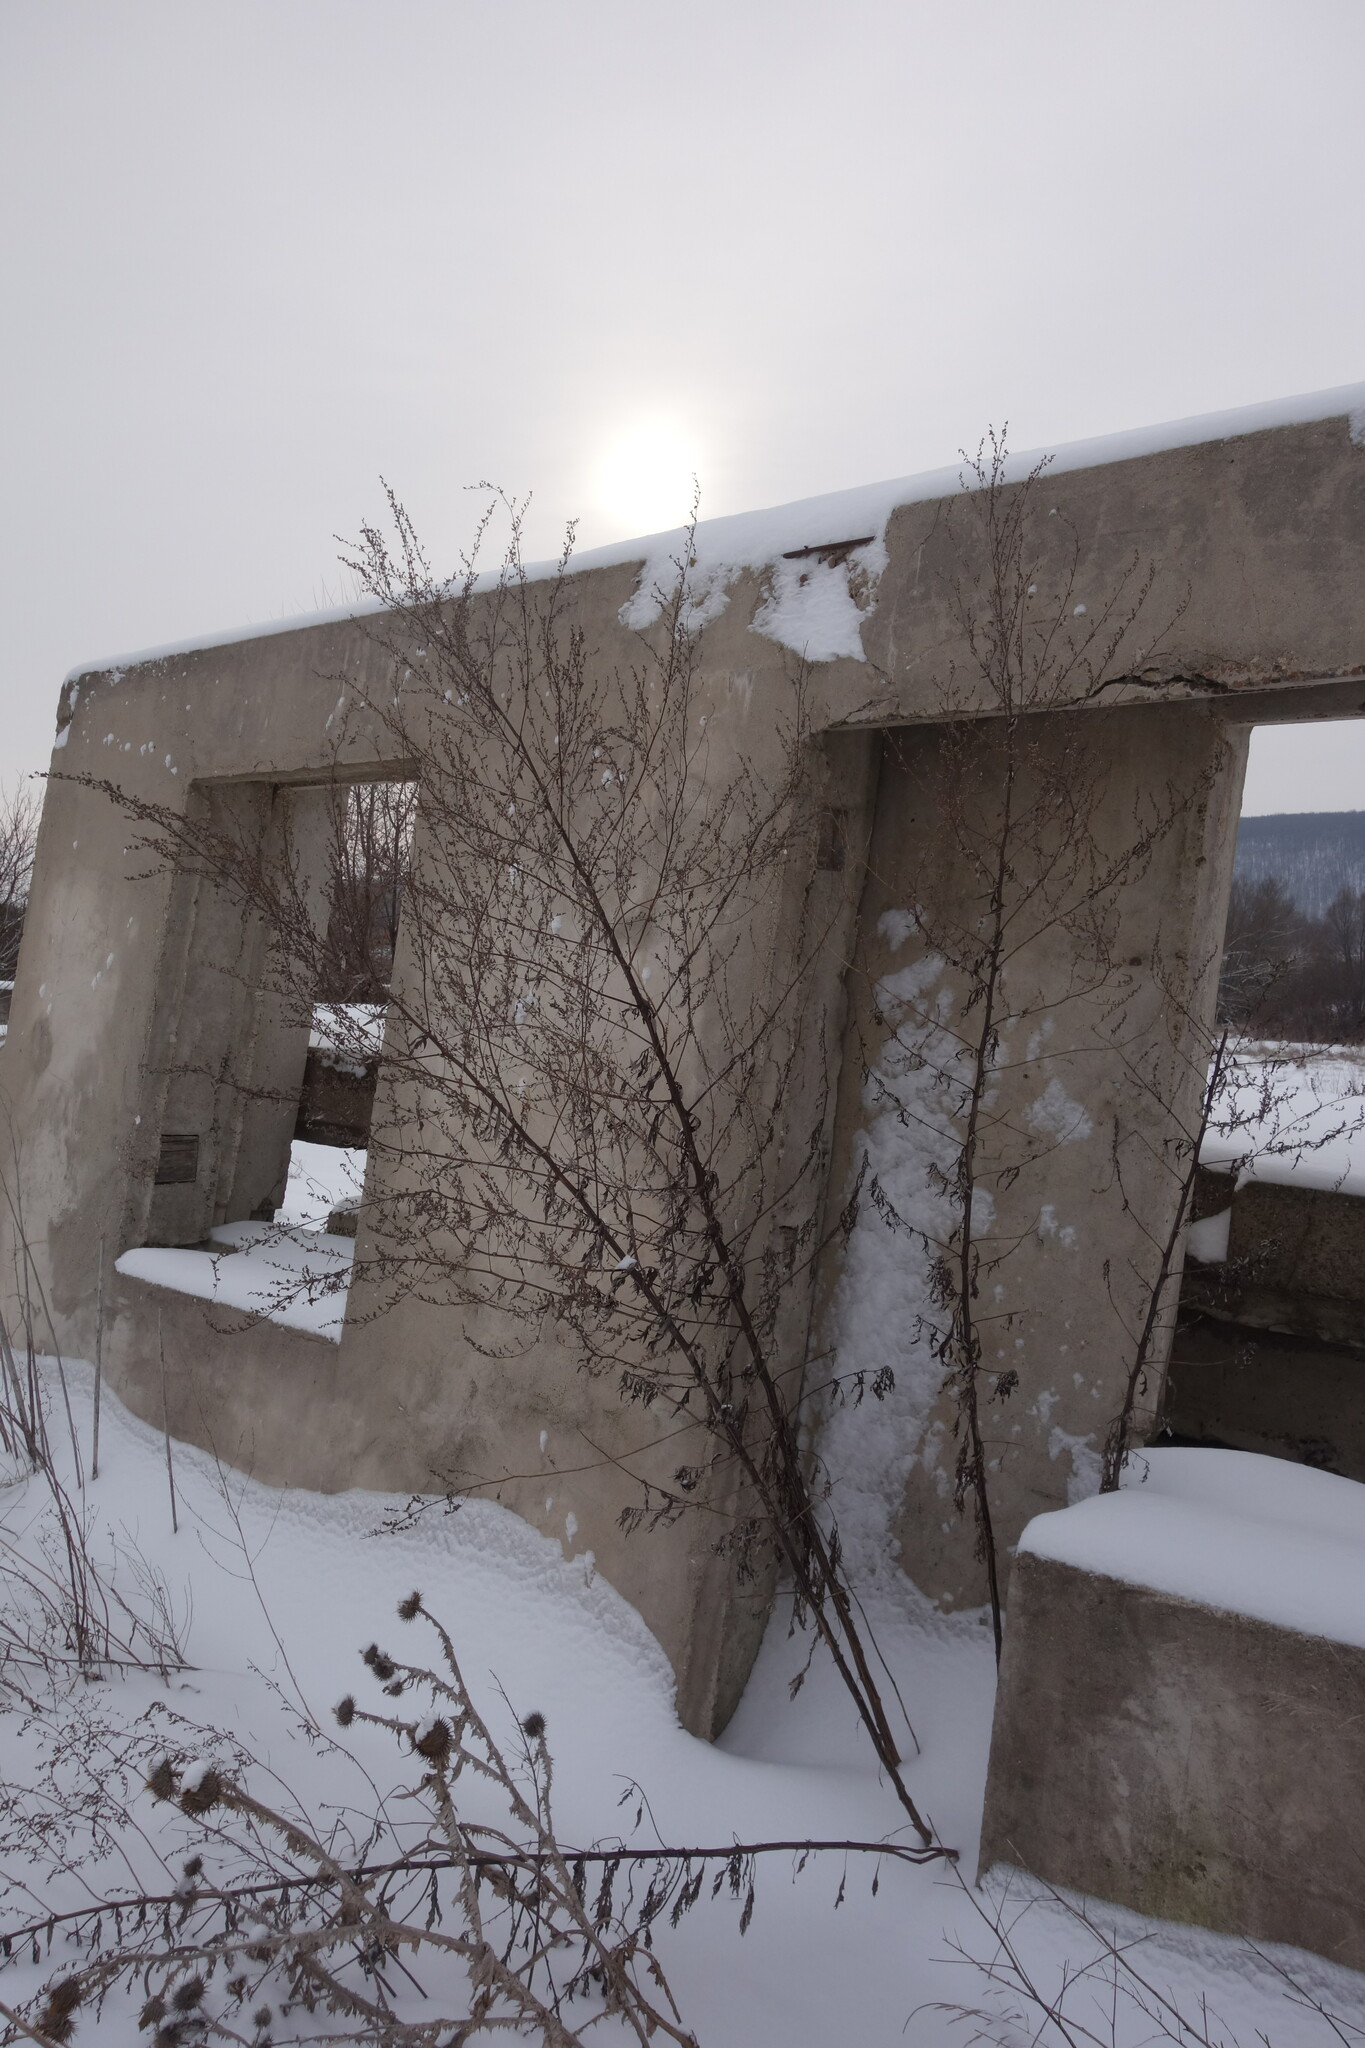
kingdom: Plantae
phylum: Tracheophyta
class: Magnoliopsida
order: Asterales
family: Asteraceae
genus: Artemisia
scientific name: Artemisia vulgaris
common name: Mugwort
